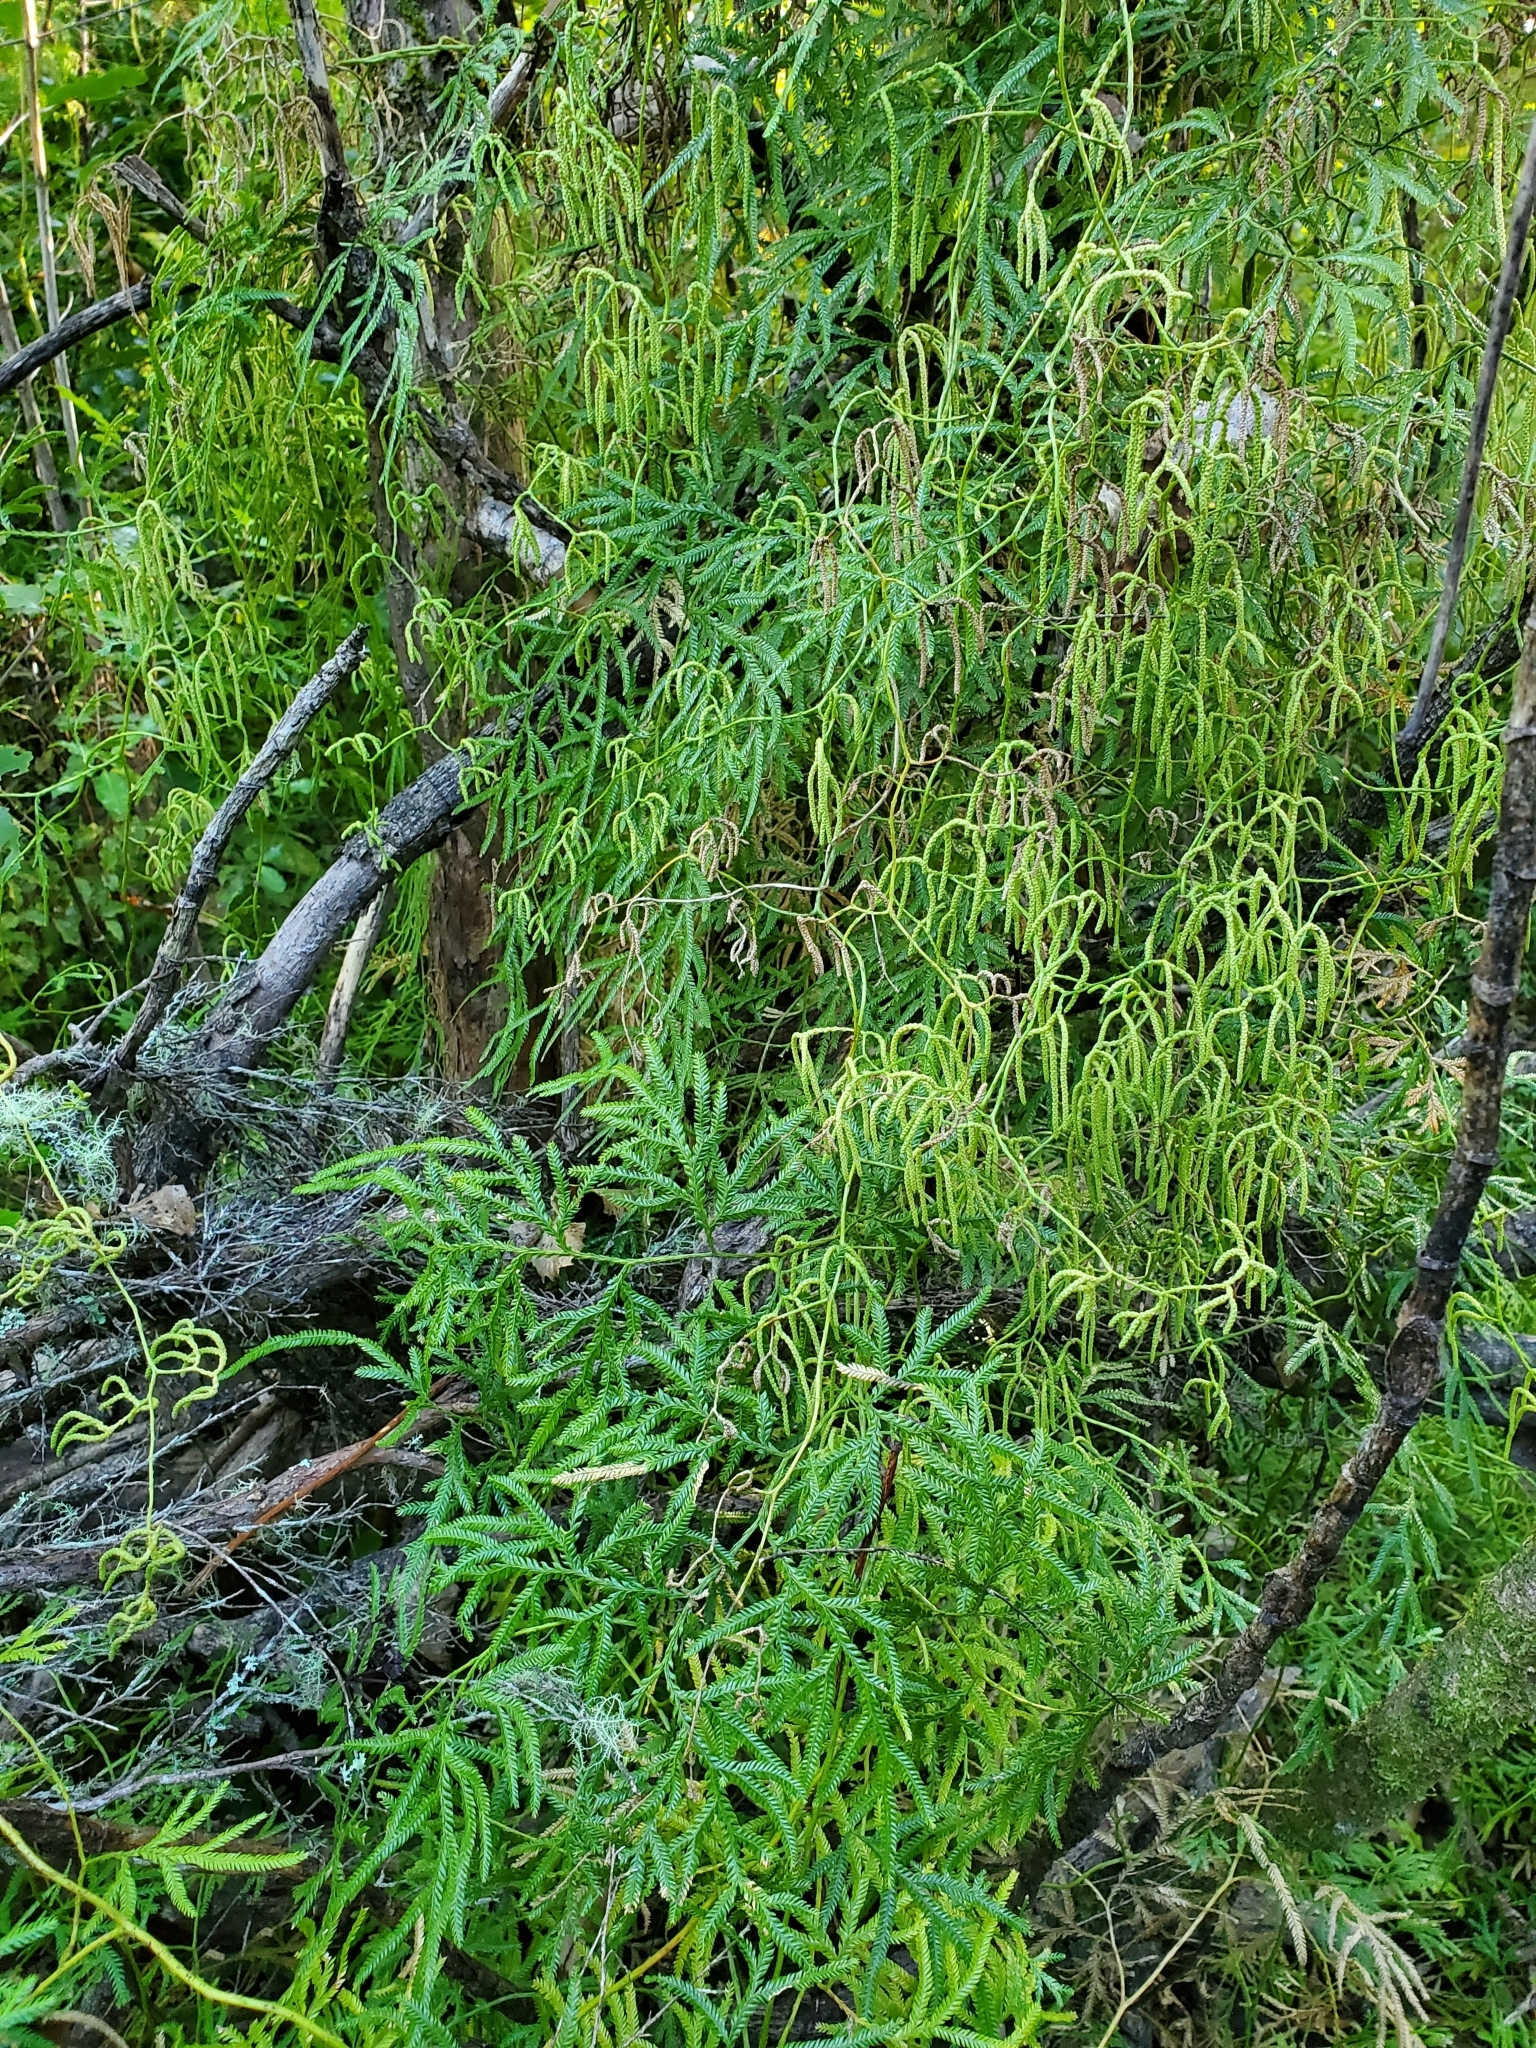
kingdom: Plantae
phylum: Tracheophyta
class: Lycopodiopsida
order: Lycopodiales
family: Lycopodiaceae
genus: Lycopodium
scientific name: Lycopodium volubile
